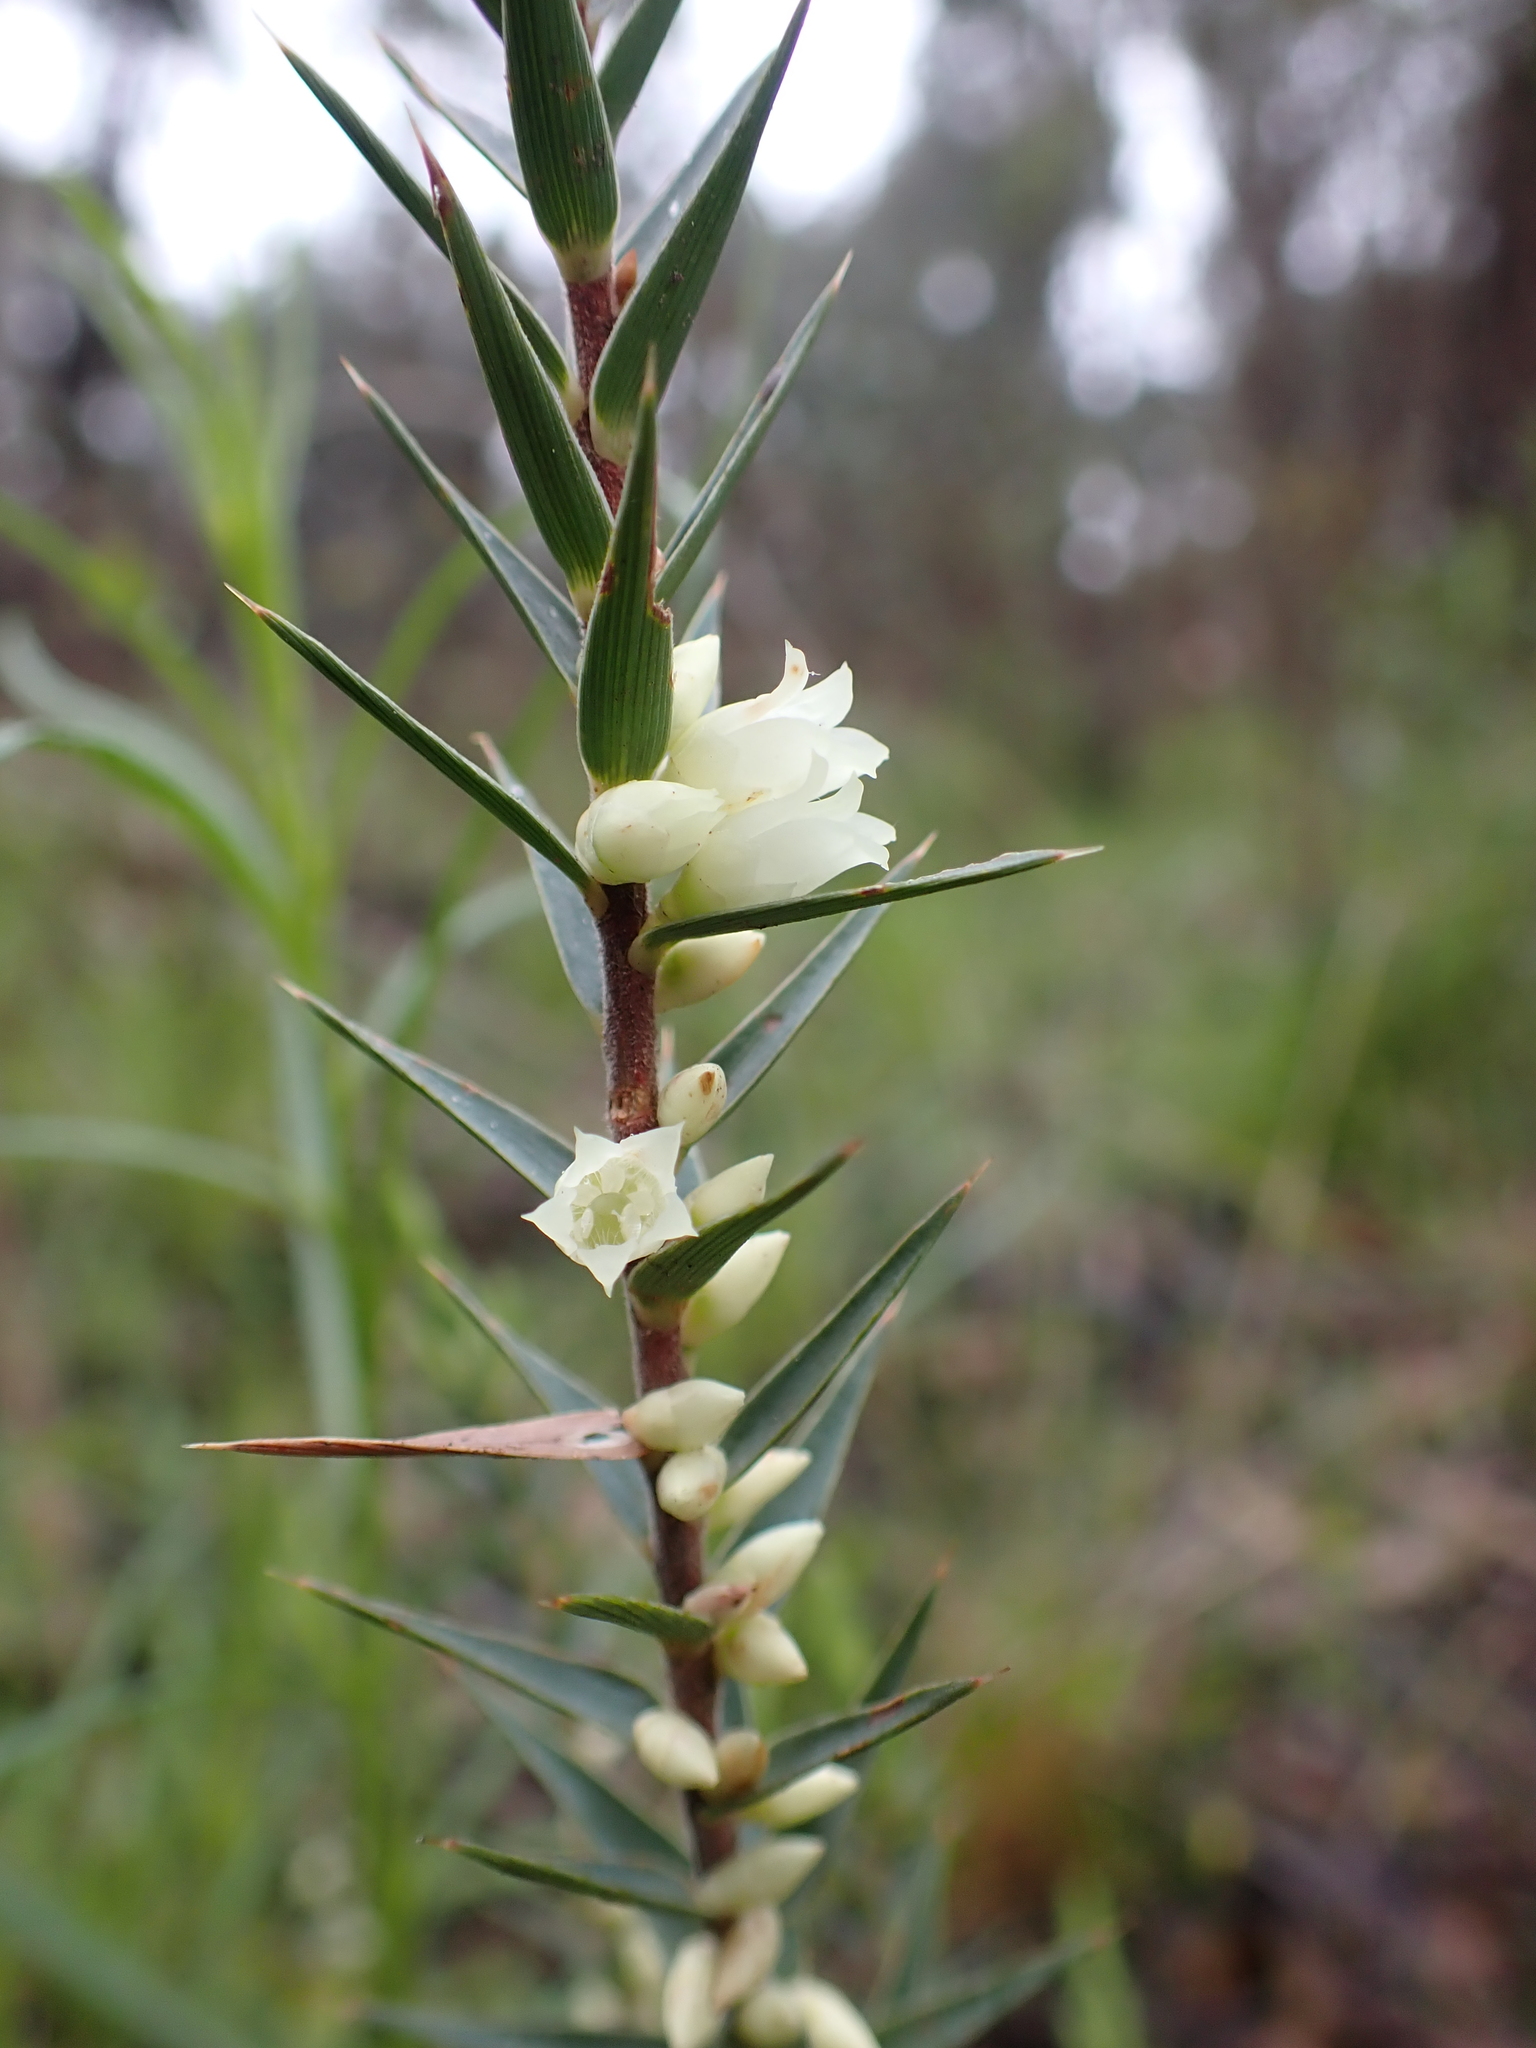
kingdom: Plantae
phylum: Tracheophyta
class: Magnoliopsida
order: Ericales
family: Ericaceae
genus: Melichrus
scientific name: Melichrus urceolatus
